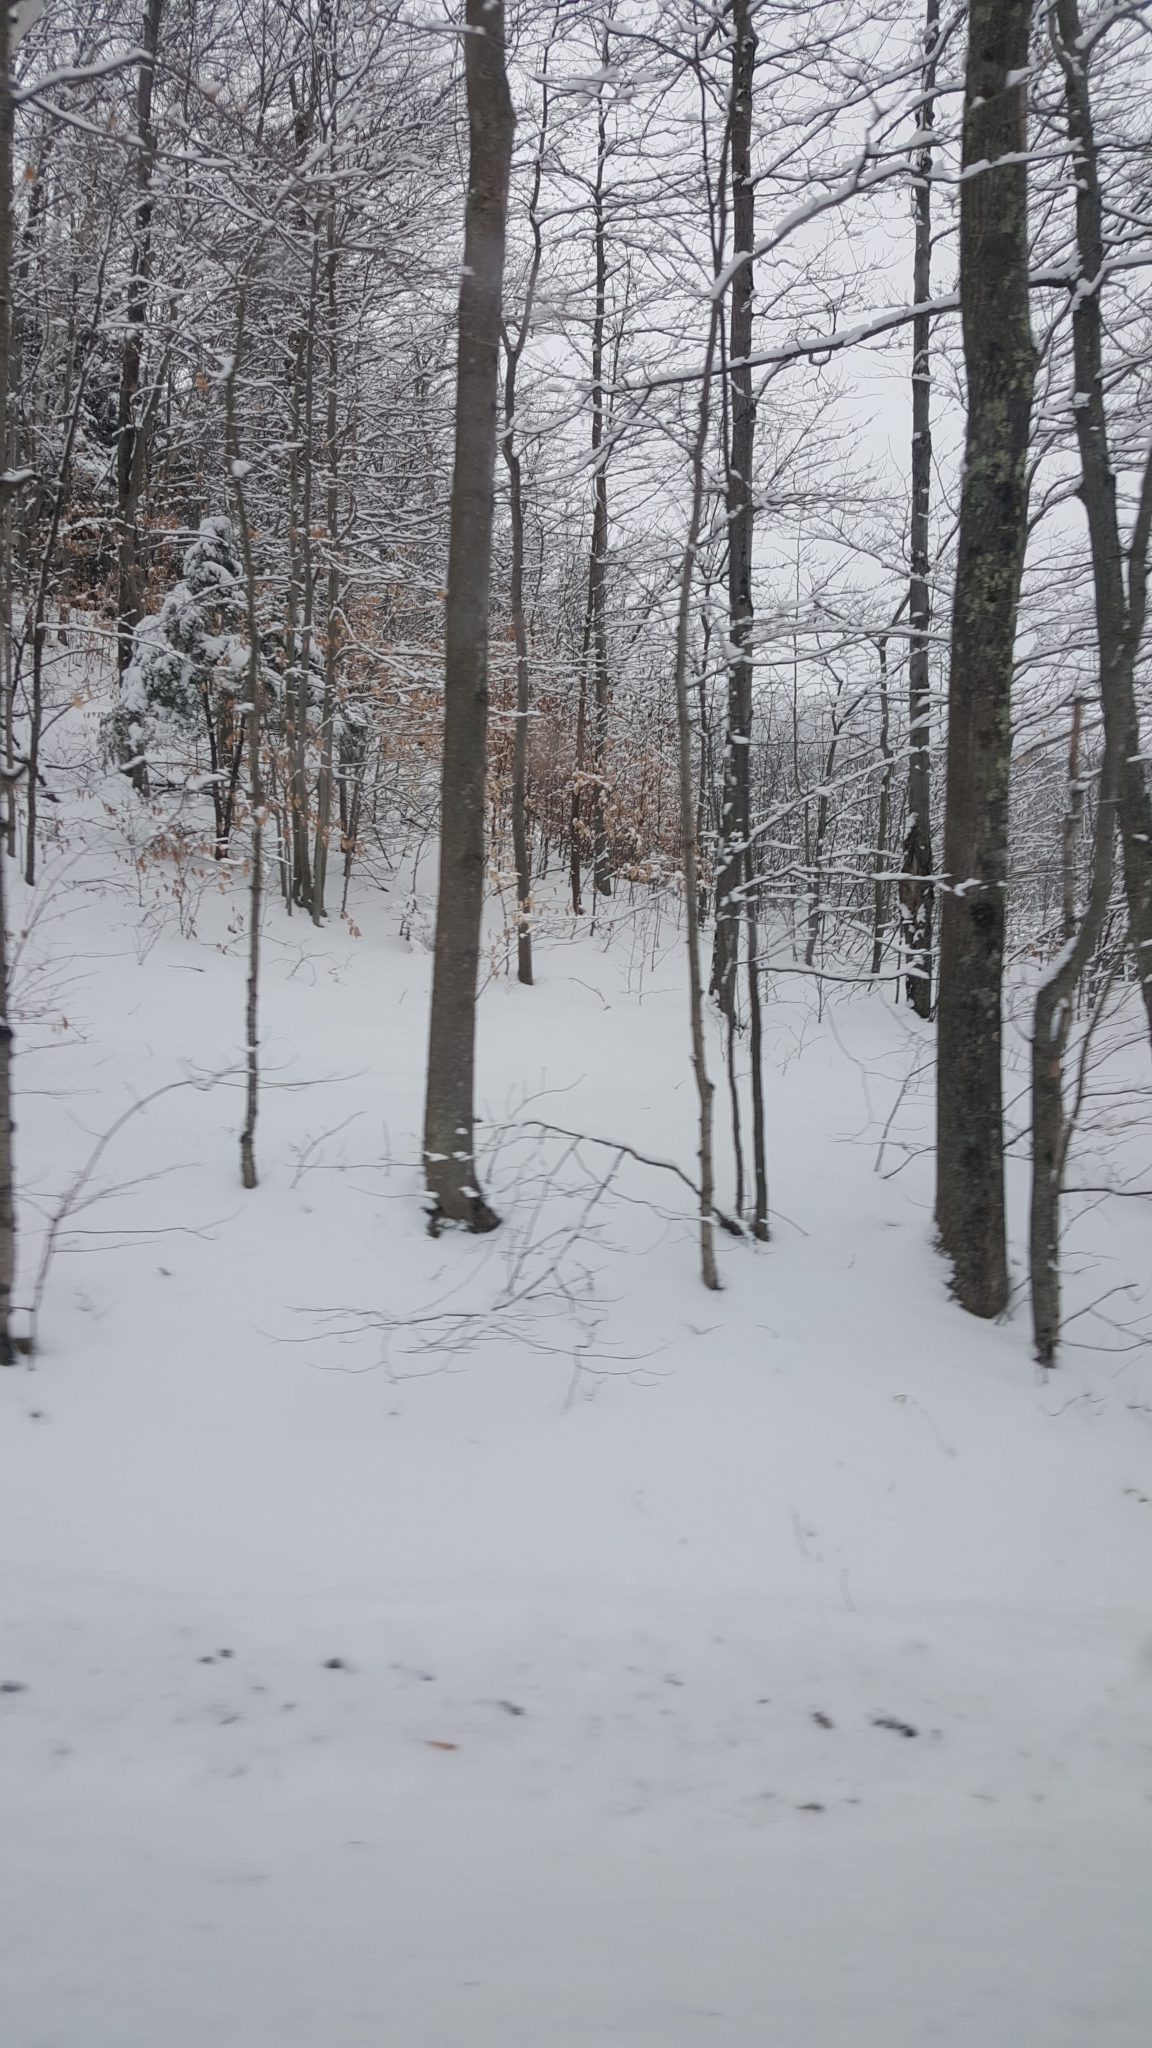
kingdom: Plantae
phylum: Tracheophyta
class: Magnoliopsida
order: Fagales
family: Fagaceae
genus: Fagus
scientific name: Fagus grandifolia
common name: American beech
